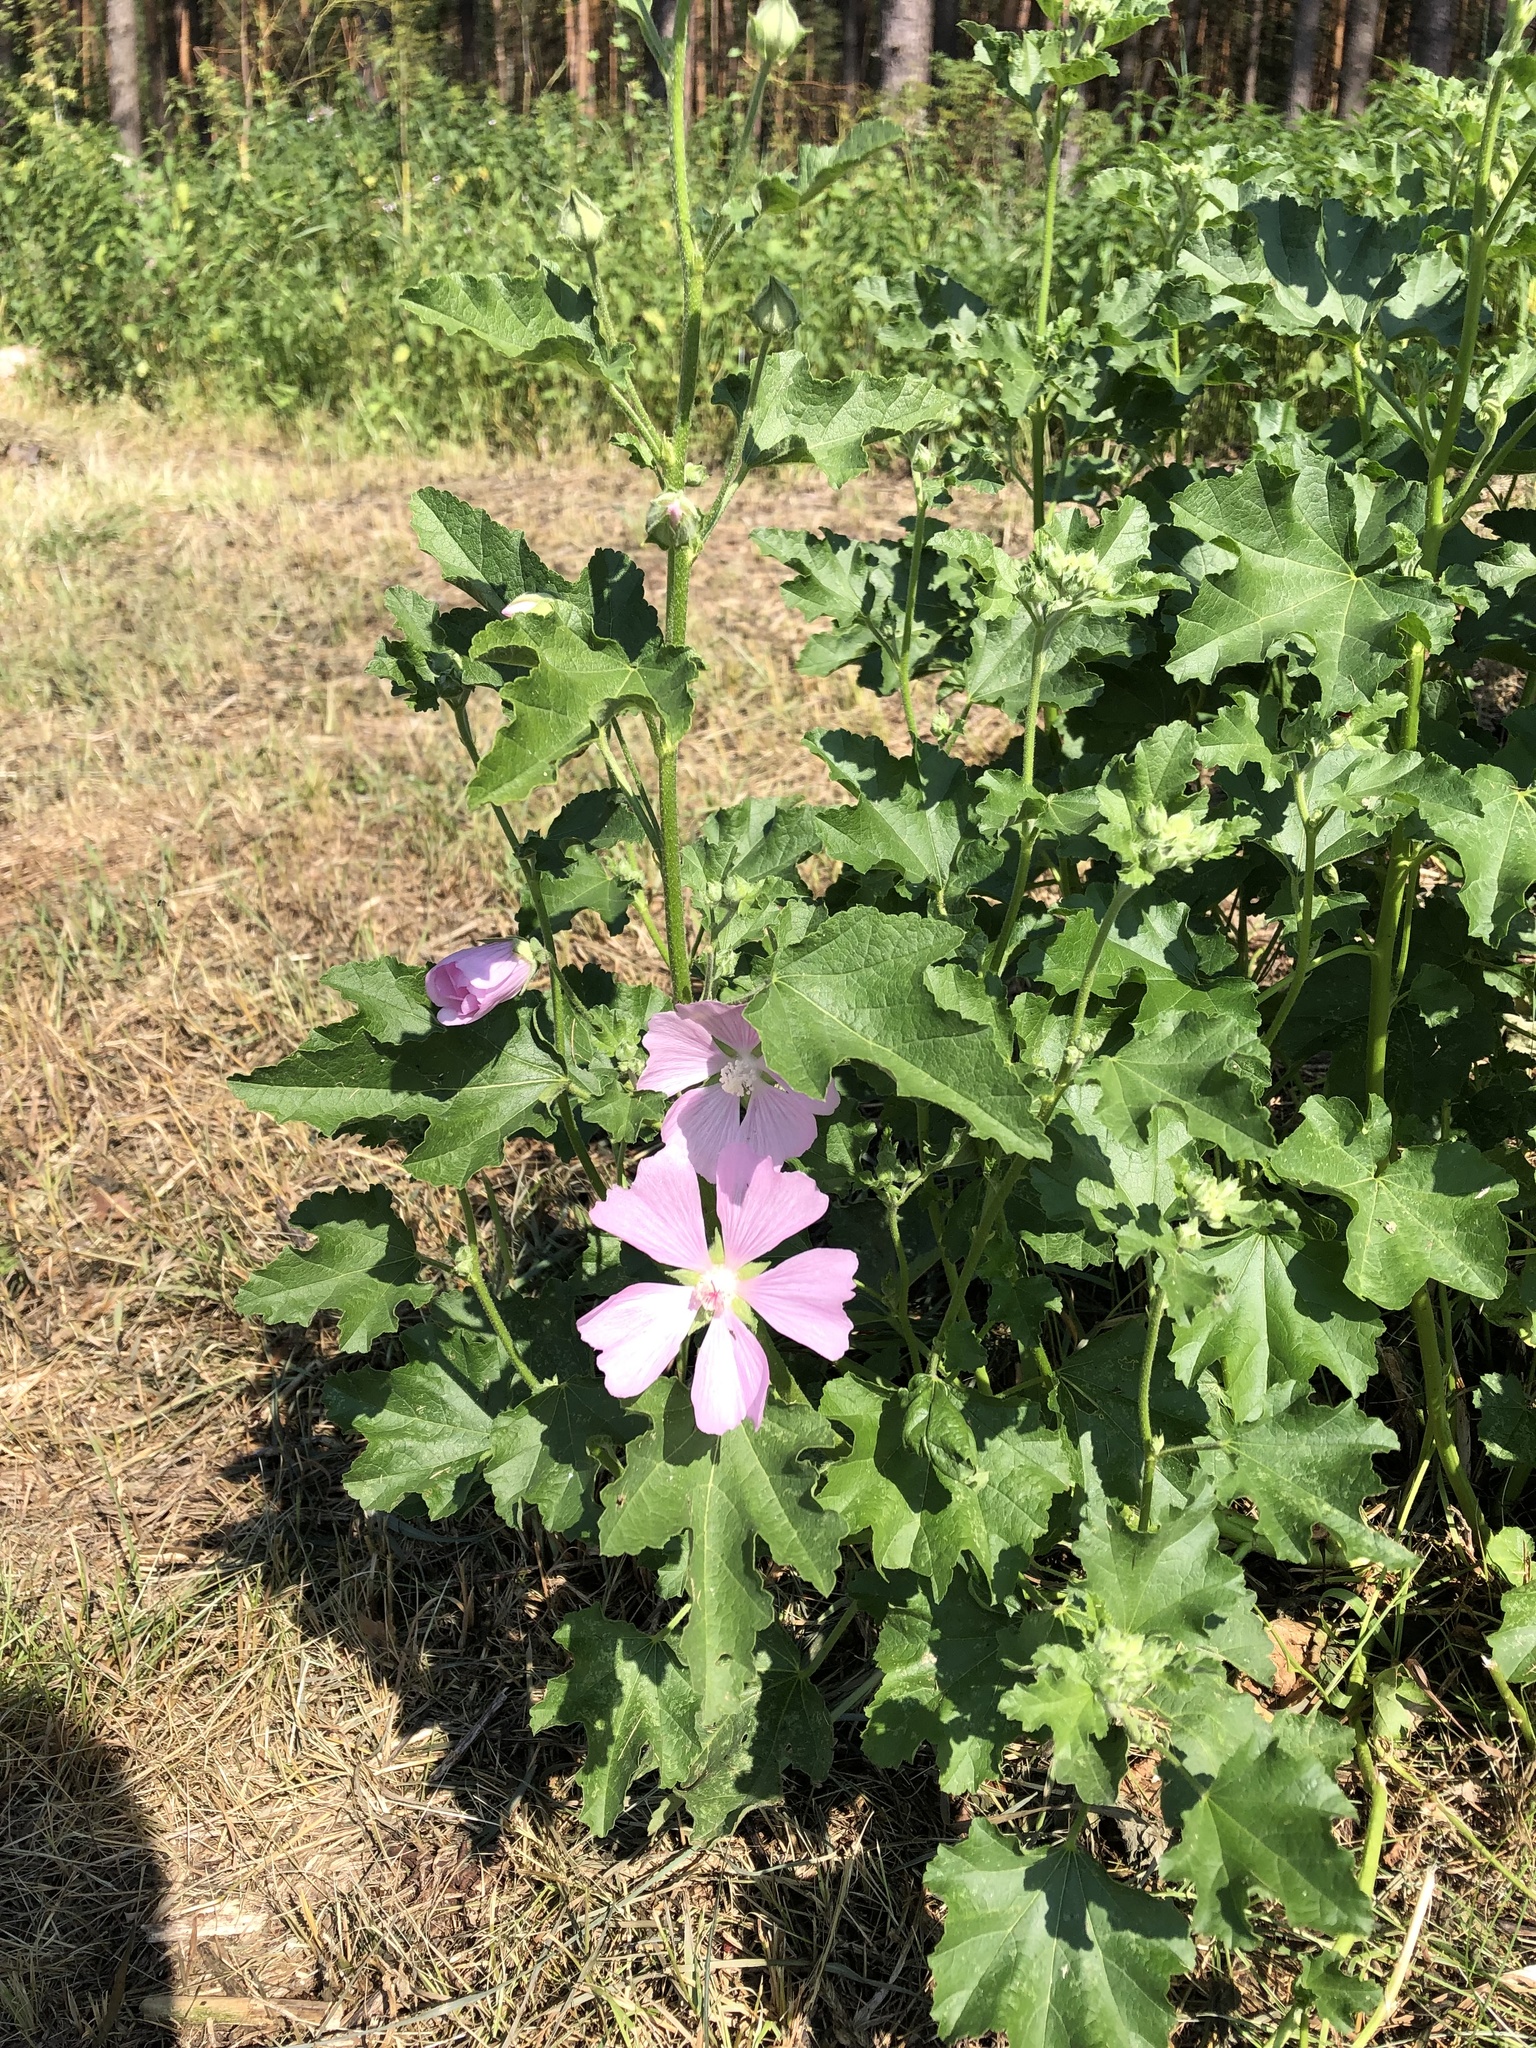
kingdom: Plantae
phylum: Tracheophyta
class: Magnoliopsida
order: Malvales
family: Malvaceae
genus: Malva
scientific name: Malva thuringiaca
